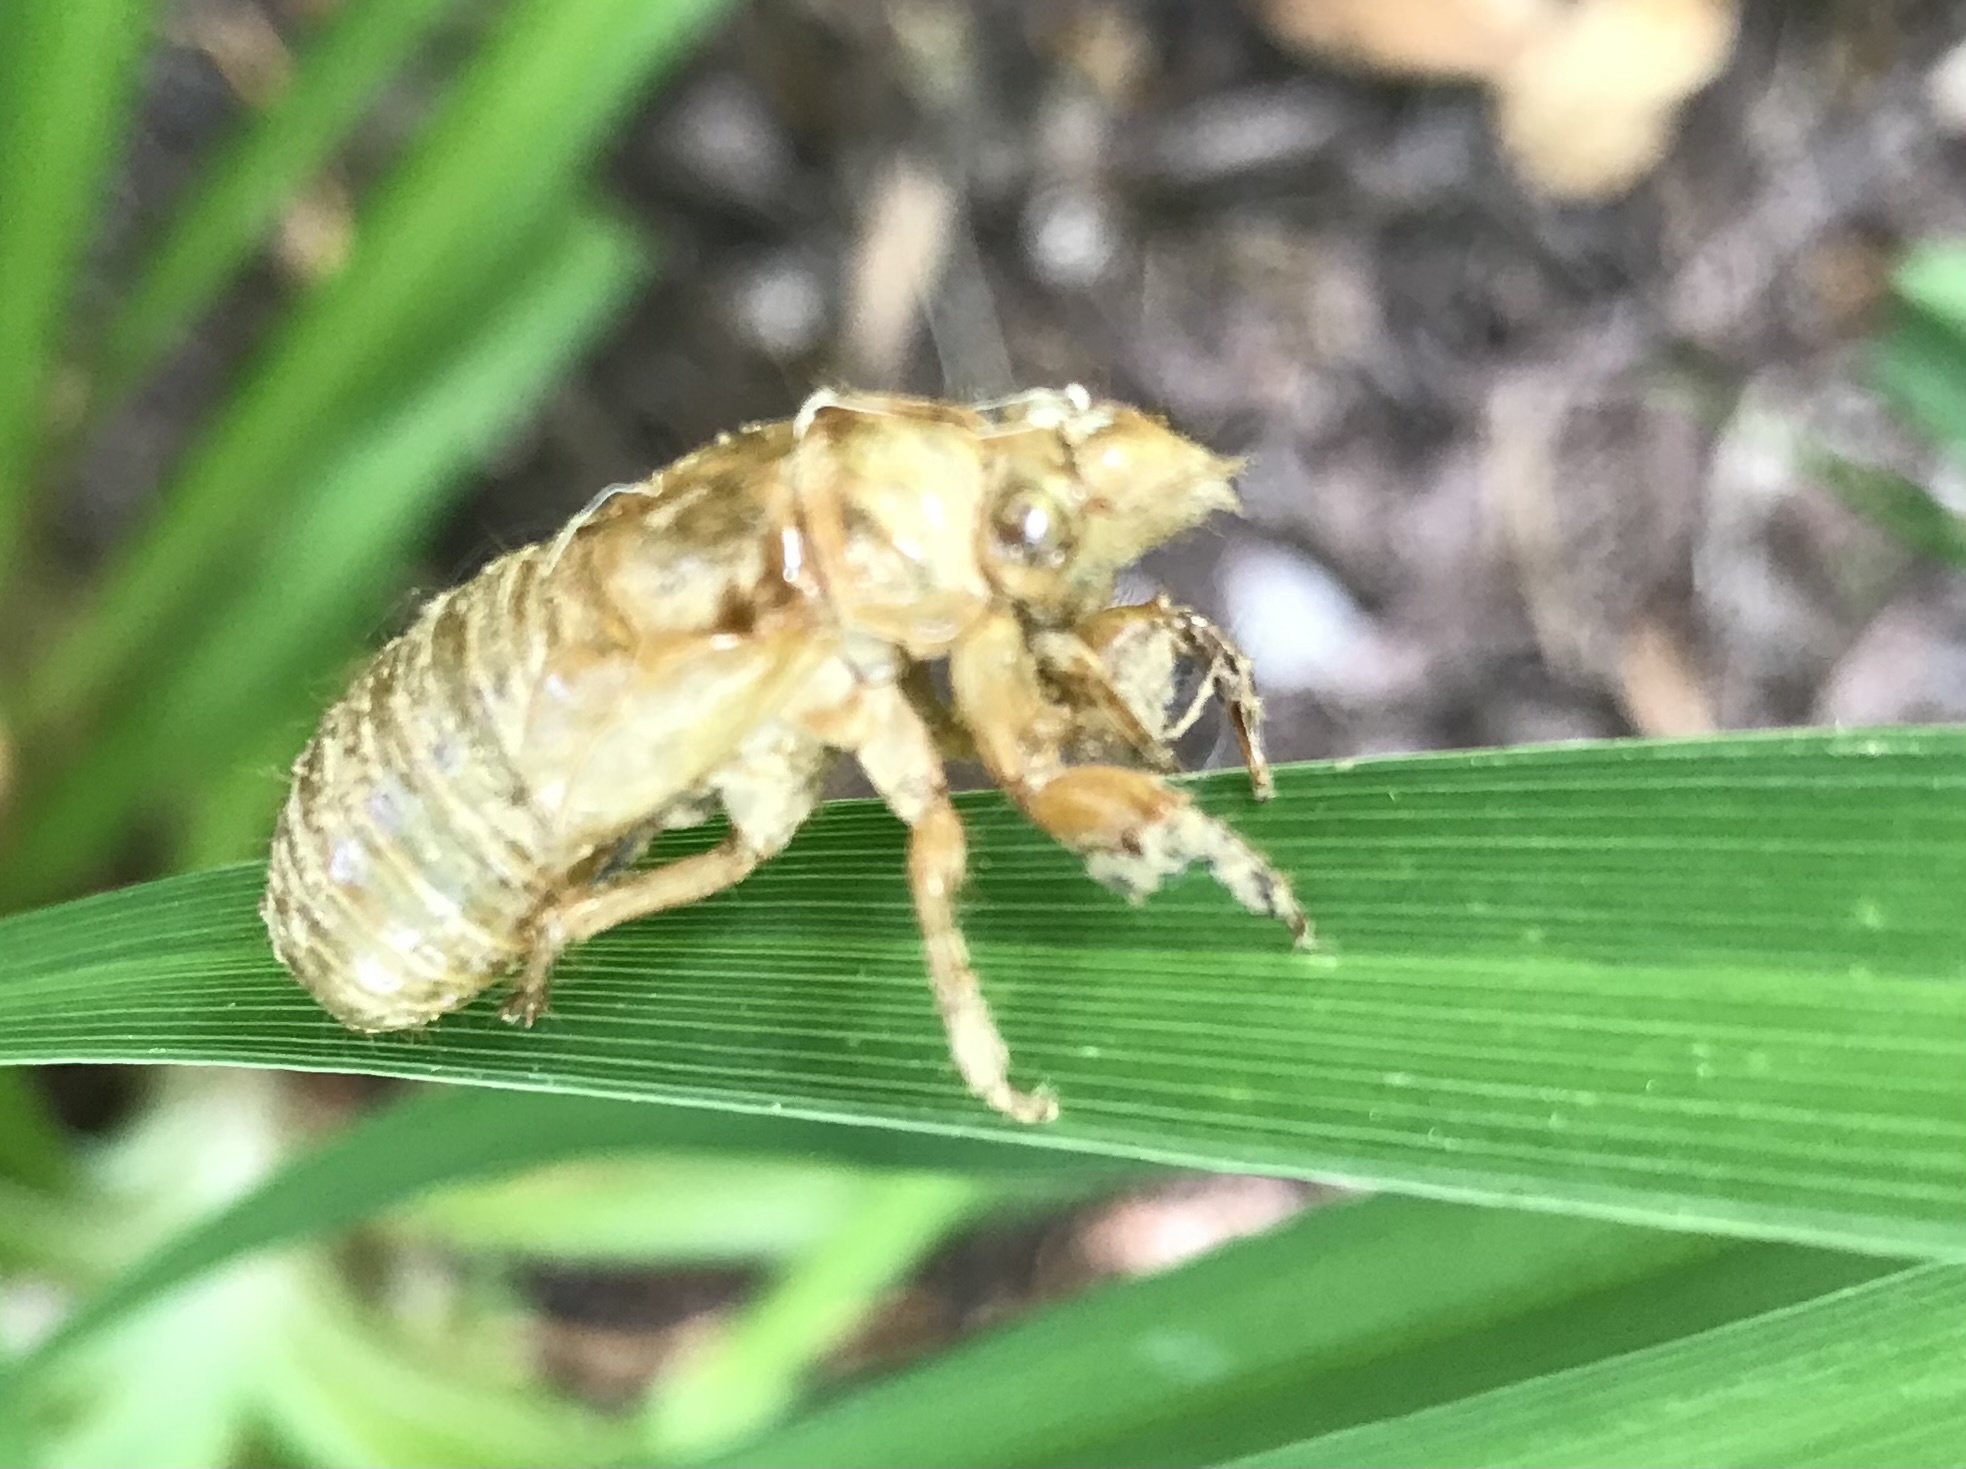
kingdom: Animalia
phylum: Arthropoda
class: Insecta
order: Hemiptera
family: Cicadidae
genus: Magicicada
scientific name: Magicicada
